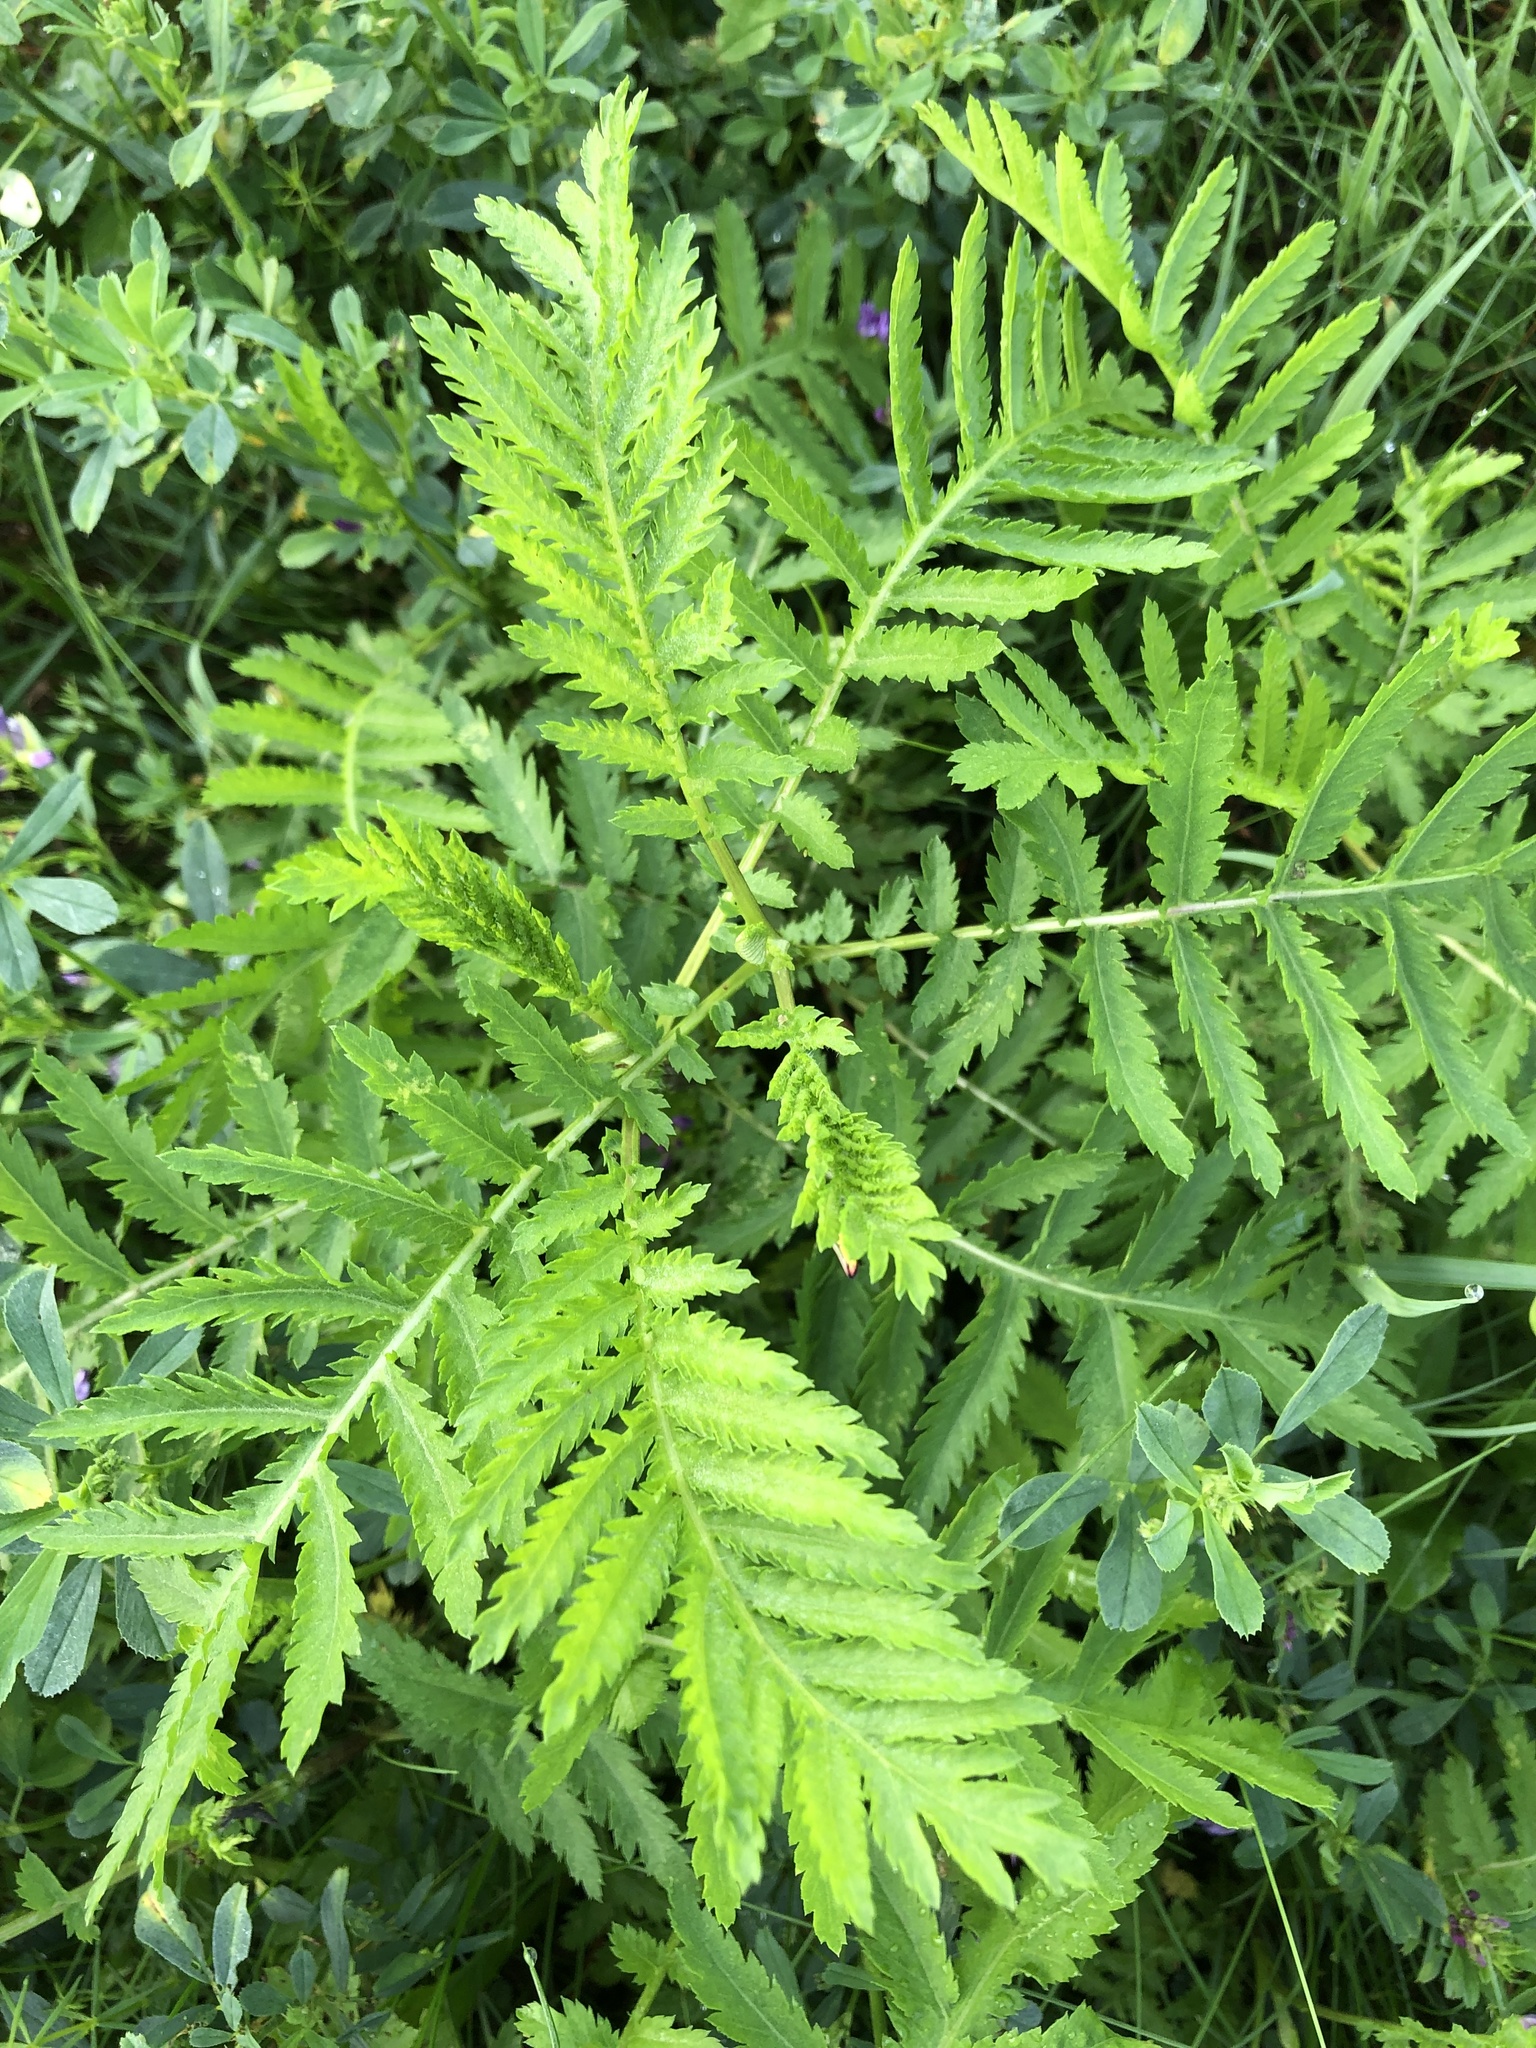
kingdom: Plantae
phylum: Tracheophyta
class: Magnoliopsida
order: Asterales
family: Asteraceae
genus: Tanacetum
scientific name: Tanacetum vulgare
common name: Common tansy
